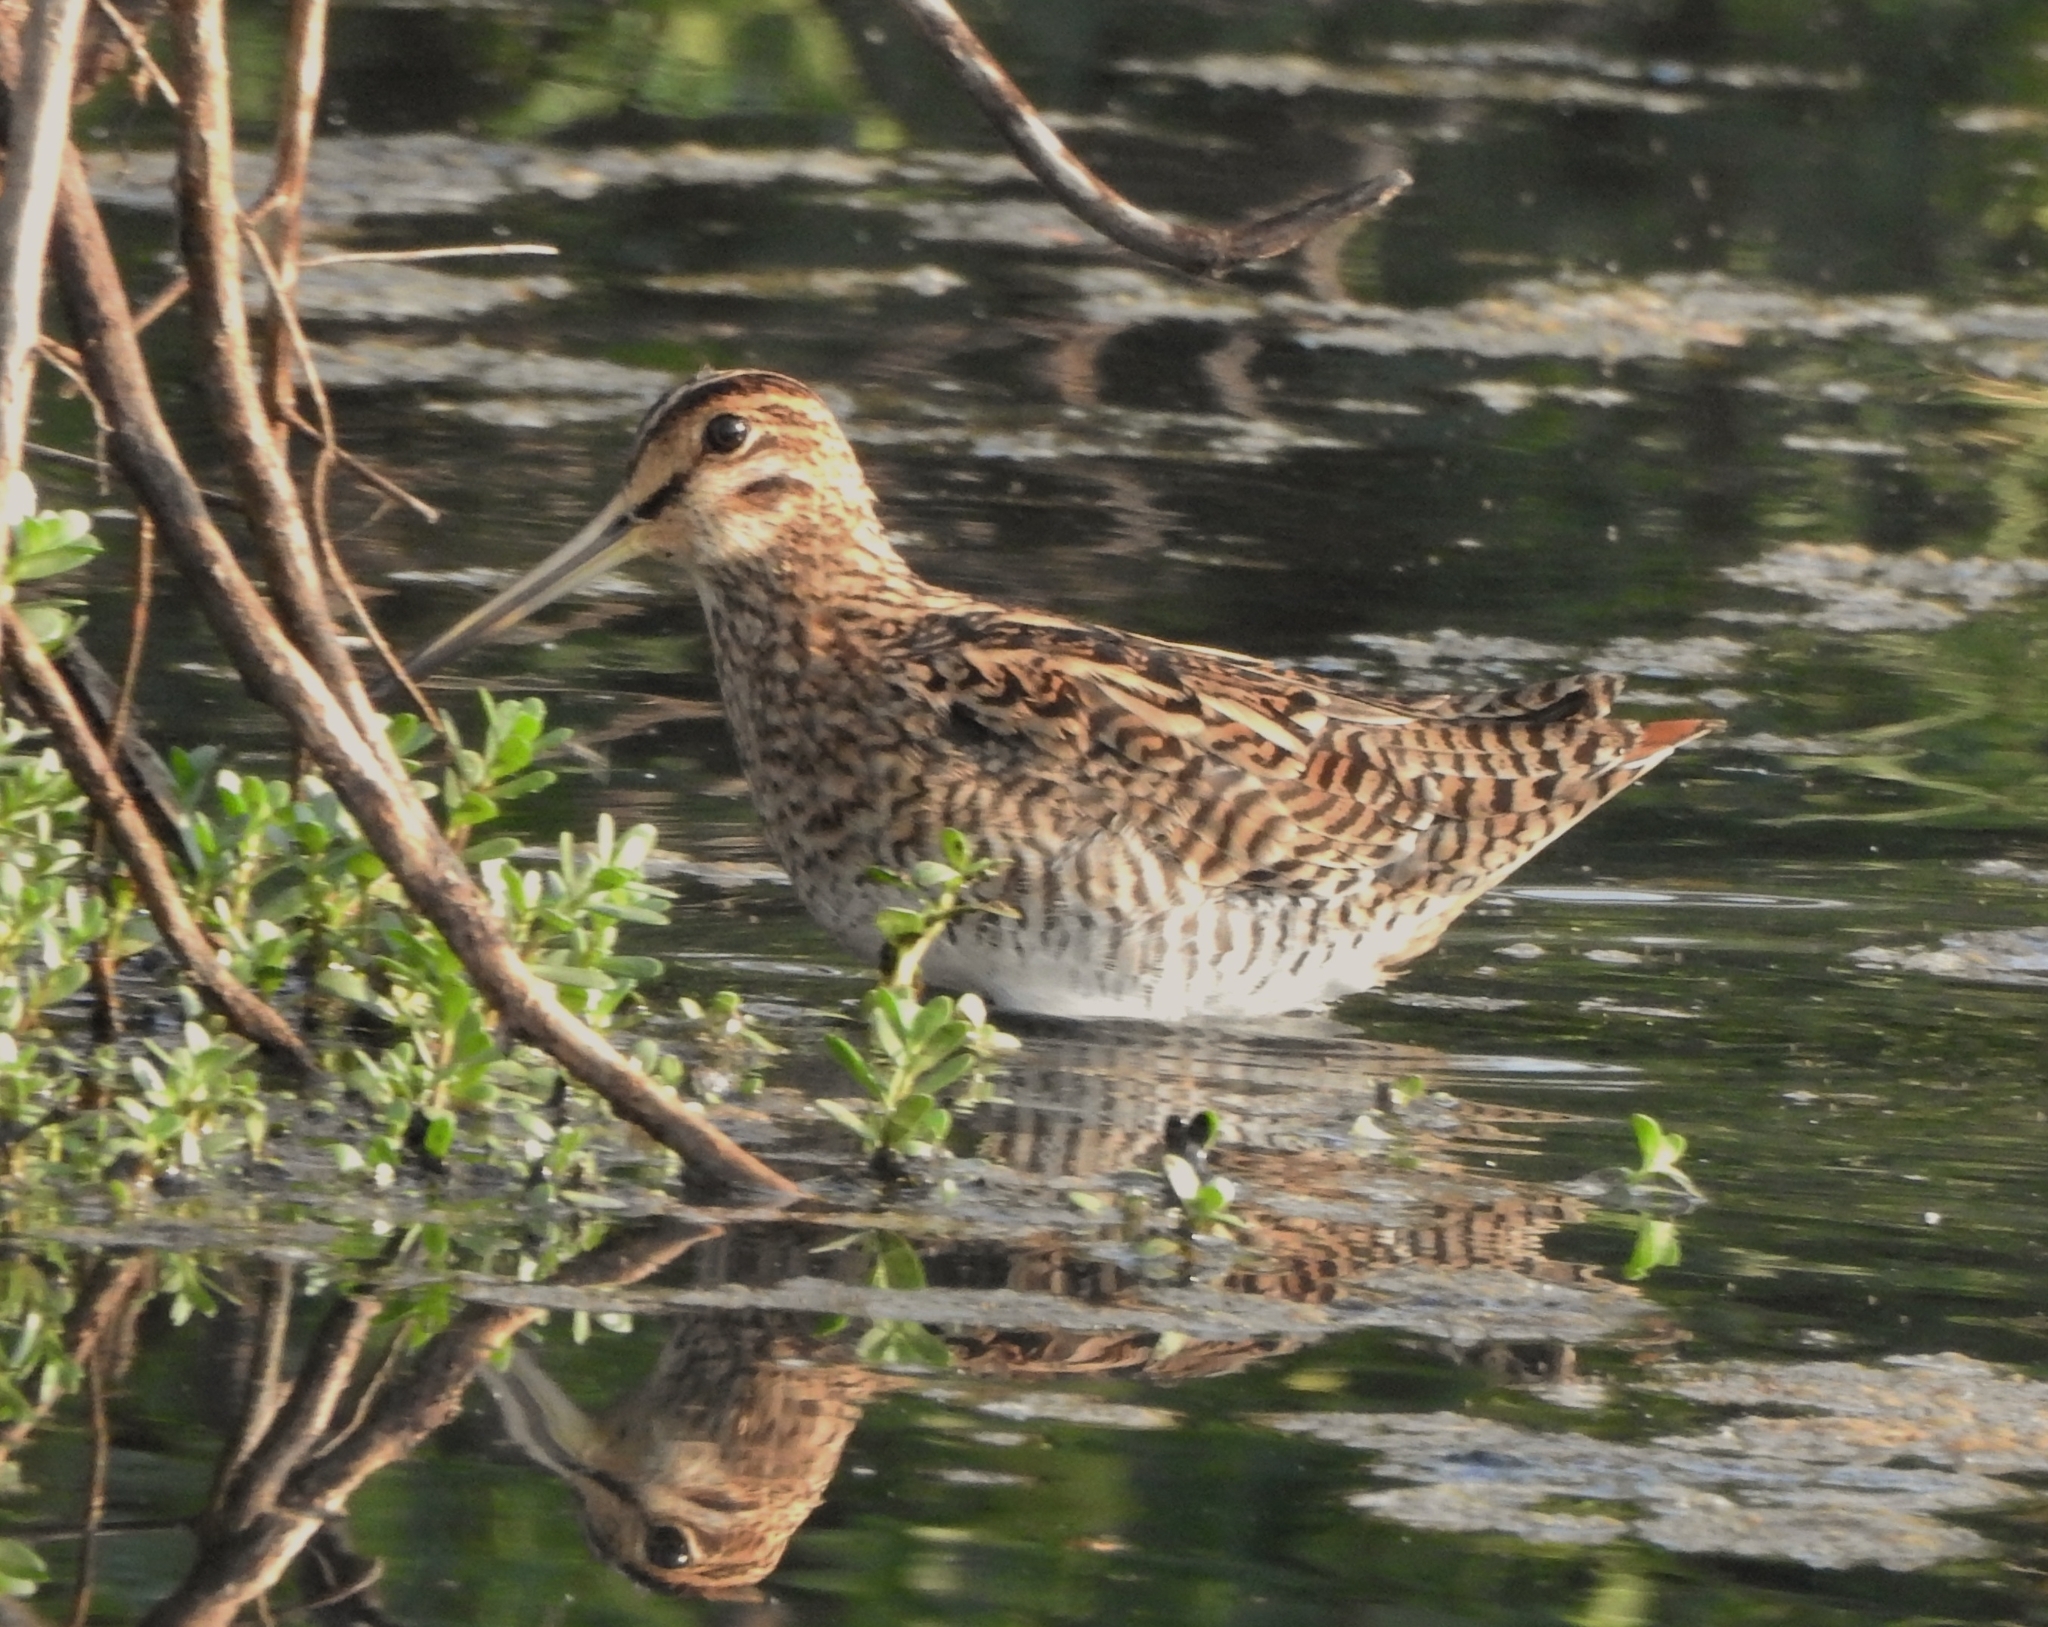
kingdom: Animalia
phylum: Chordata
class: Aves
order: Charadriiformes
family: Scolopacidae
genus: Gallinago
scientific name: Gallinago stenura
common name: Pin-tailed snipe
